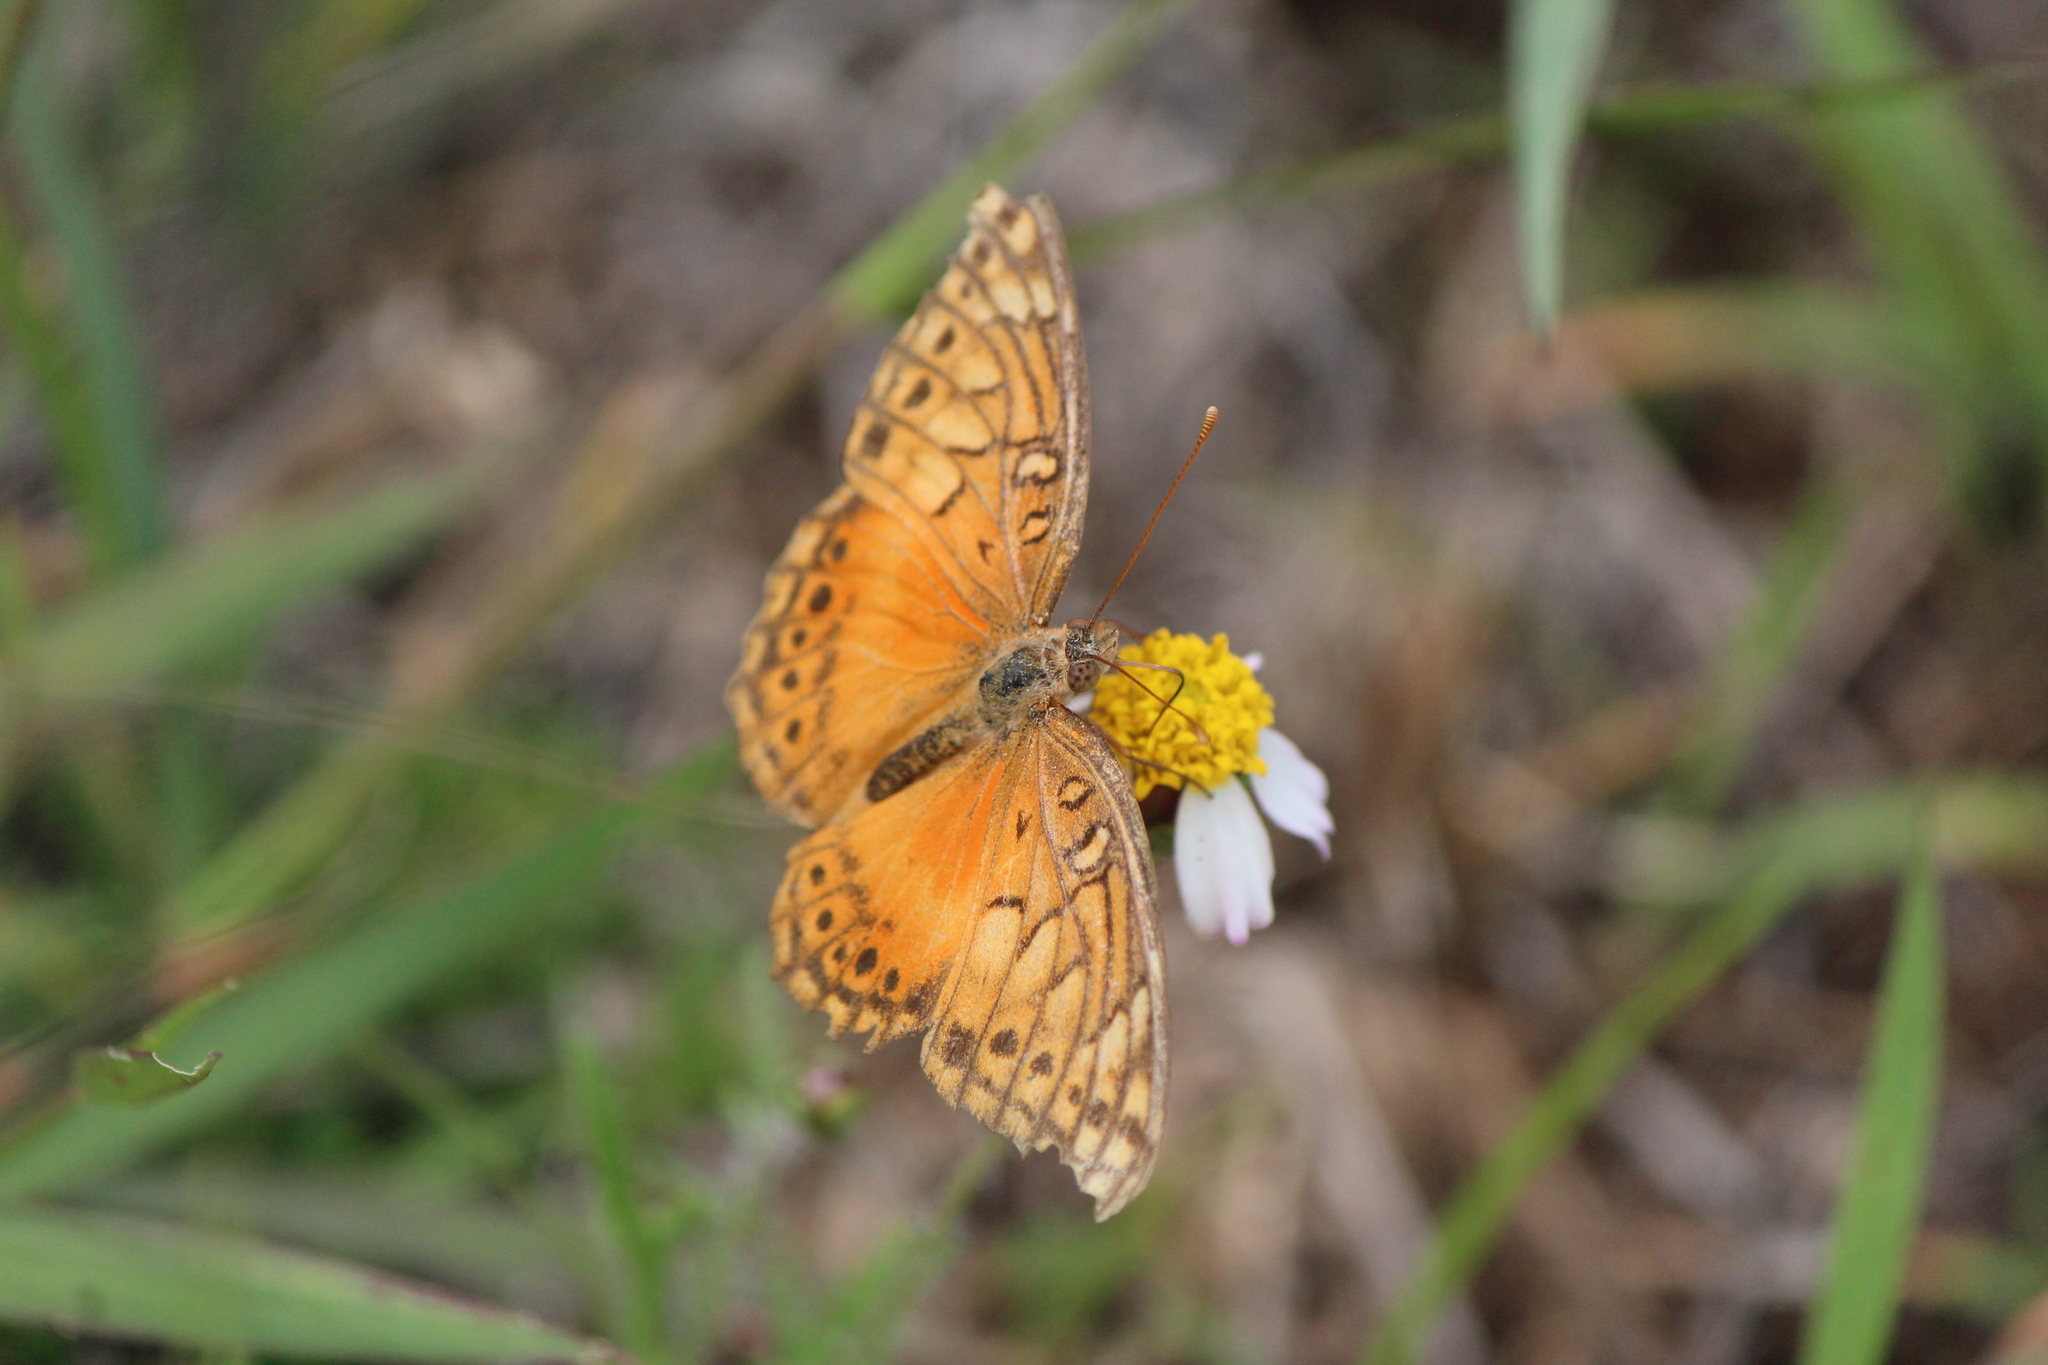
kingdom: Animalia
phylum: Arthropoda
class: Insecta
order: Lepidoptera
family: Nymphalidae
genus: Euptoieta
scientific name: Euptoieta hegesia
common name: Mexican fritillary
